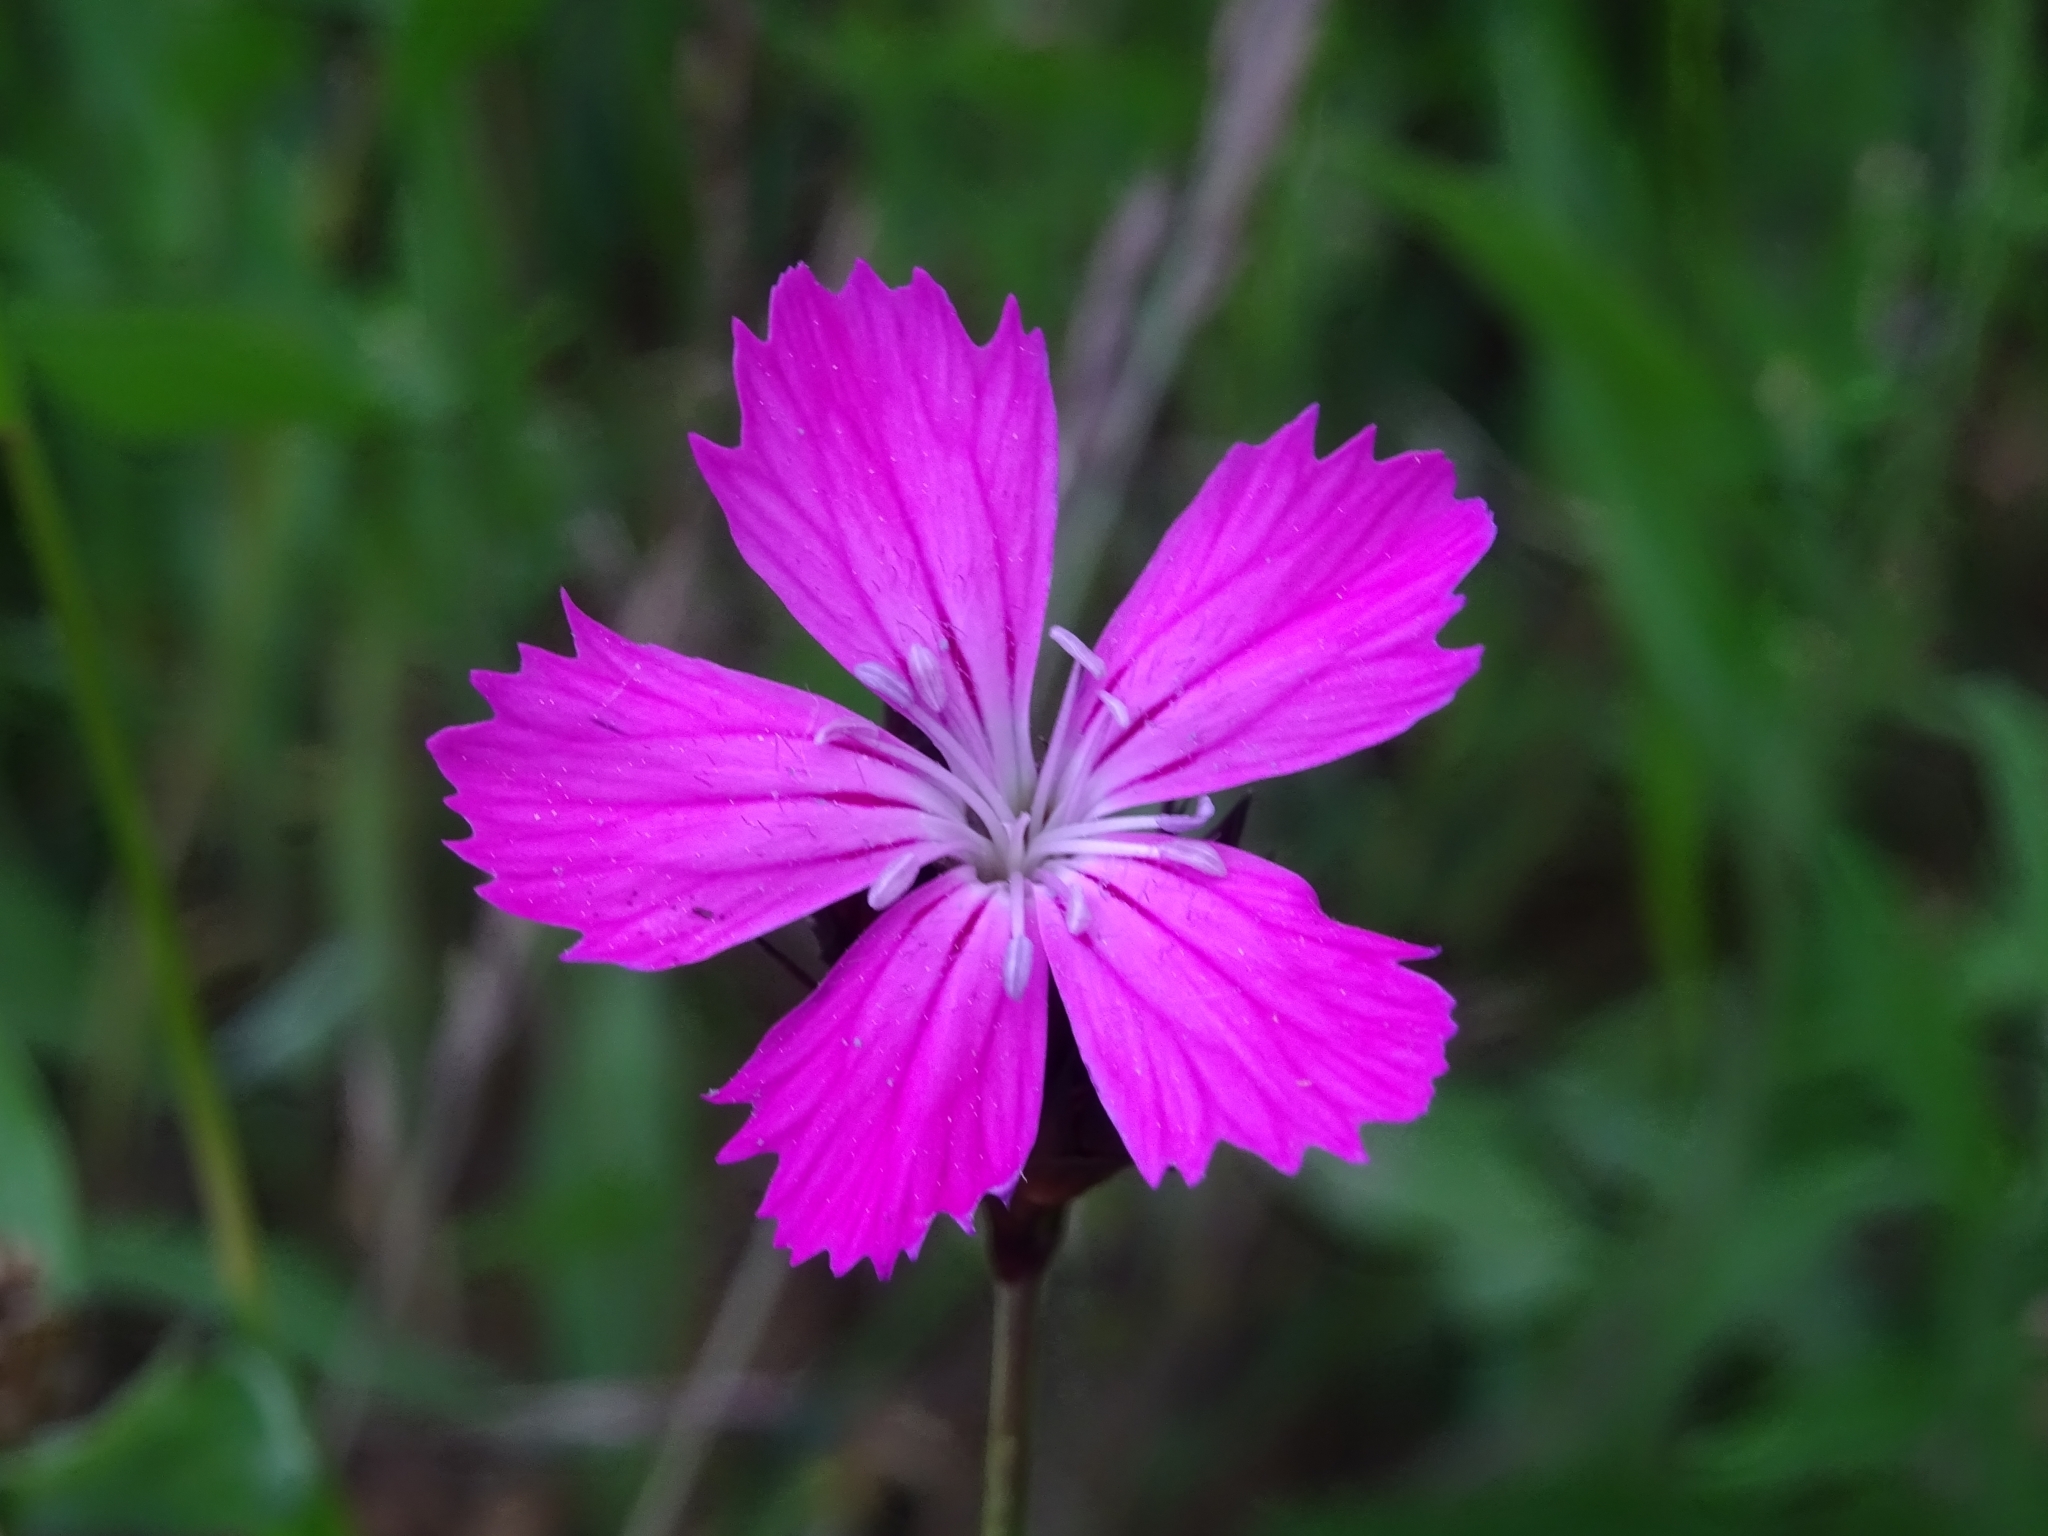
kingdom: Plantae
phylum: Tracheophyta
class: Magnoliopsida
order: Caryophyllales
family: Caryophyllaceae
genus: Dianthus
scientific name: Dianthus carthusianorum
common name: Carthusian pink
